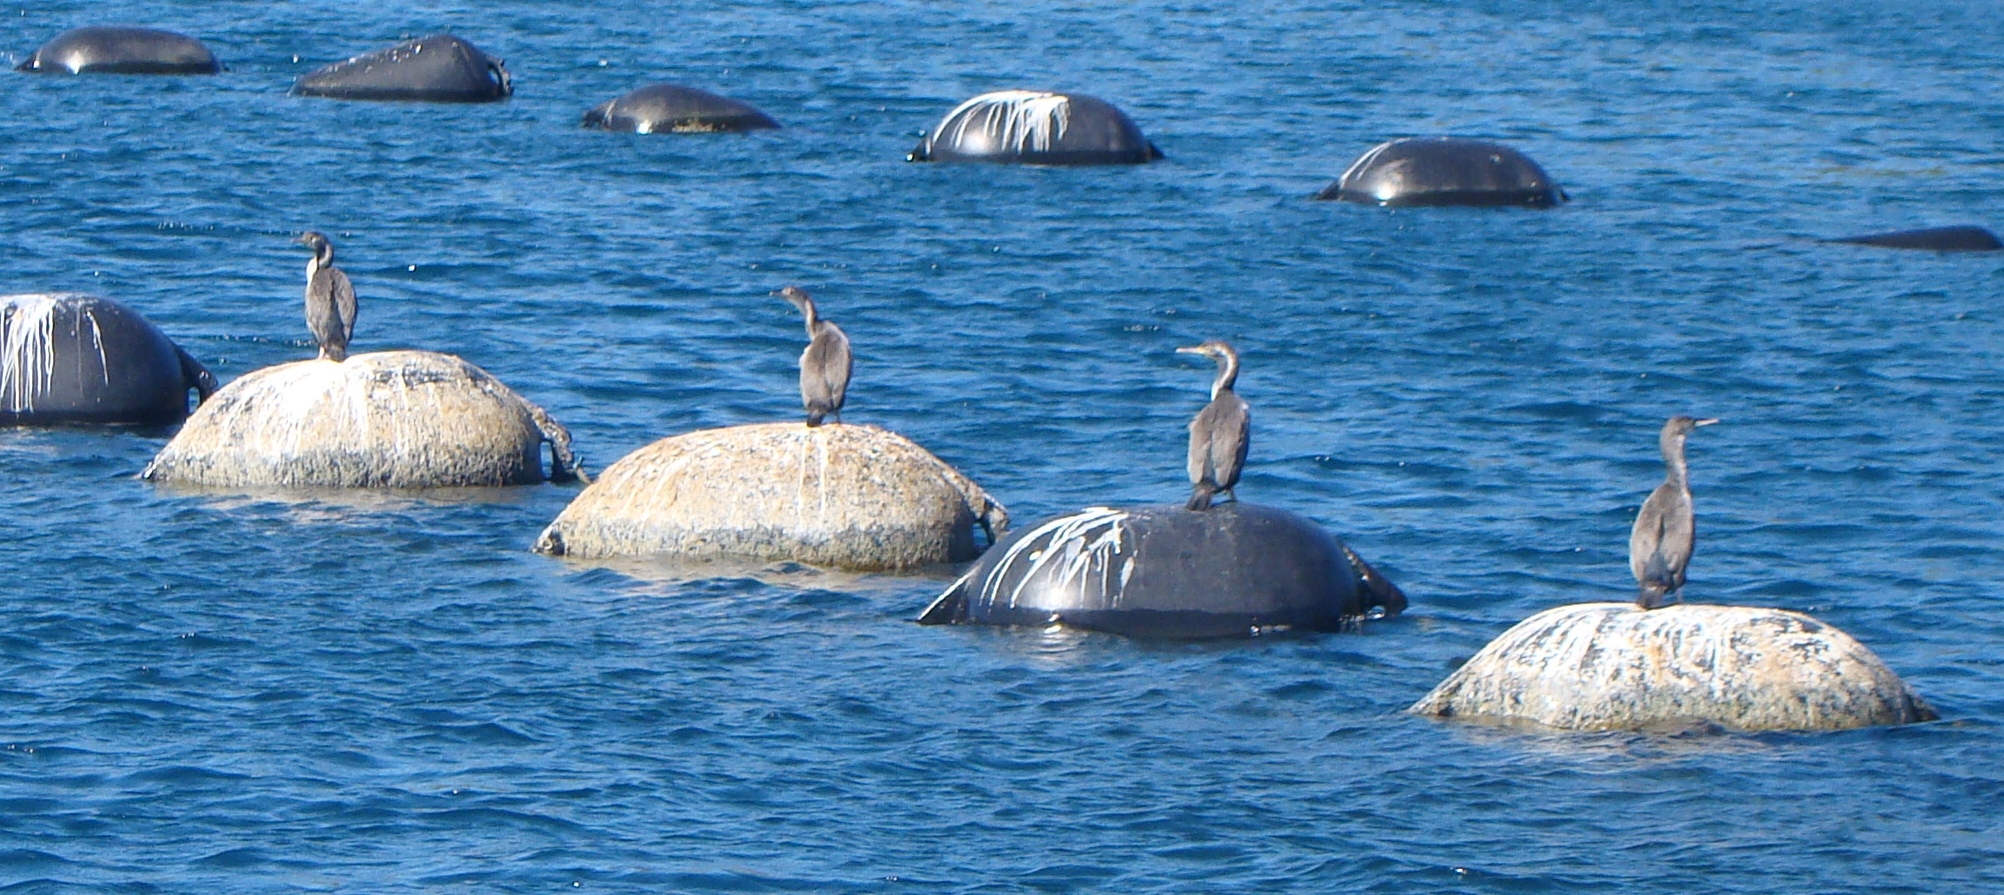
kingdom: Animalia
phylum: Chordata
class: Aves
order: Suliformes
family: Phalacrocoracidae
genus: Phalacrocorax
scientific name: Phalacrocorax punctatus
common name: Spotted shag
